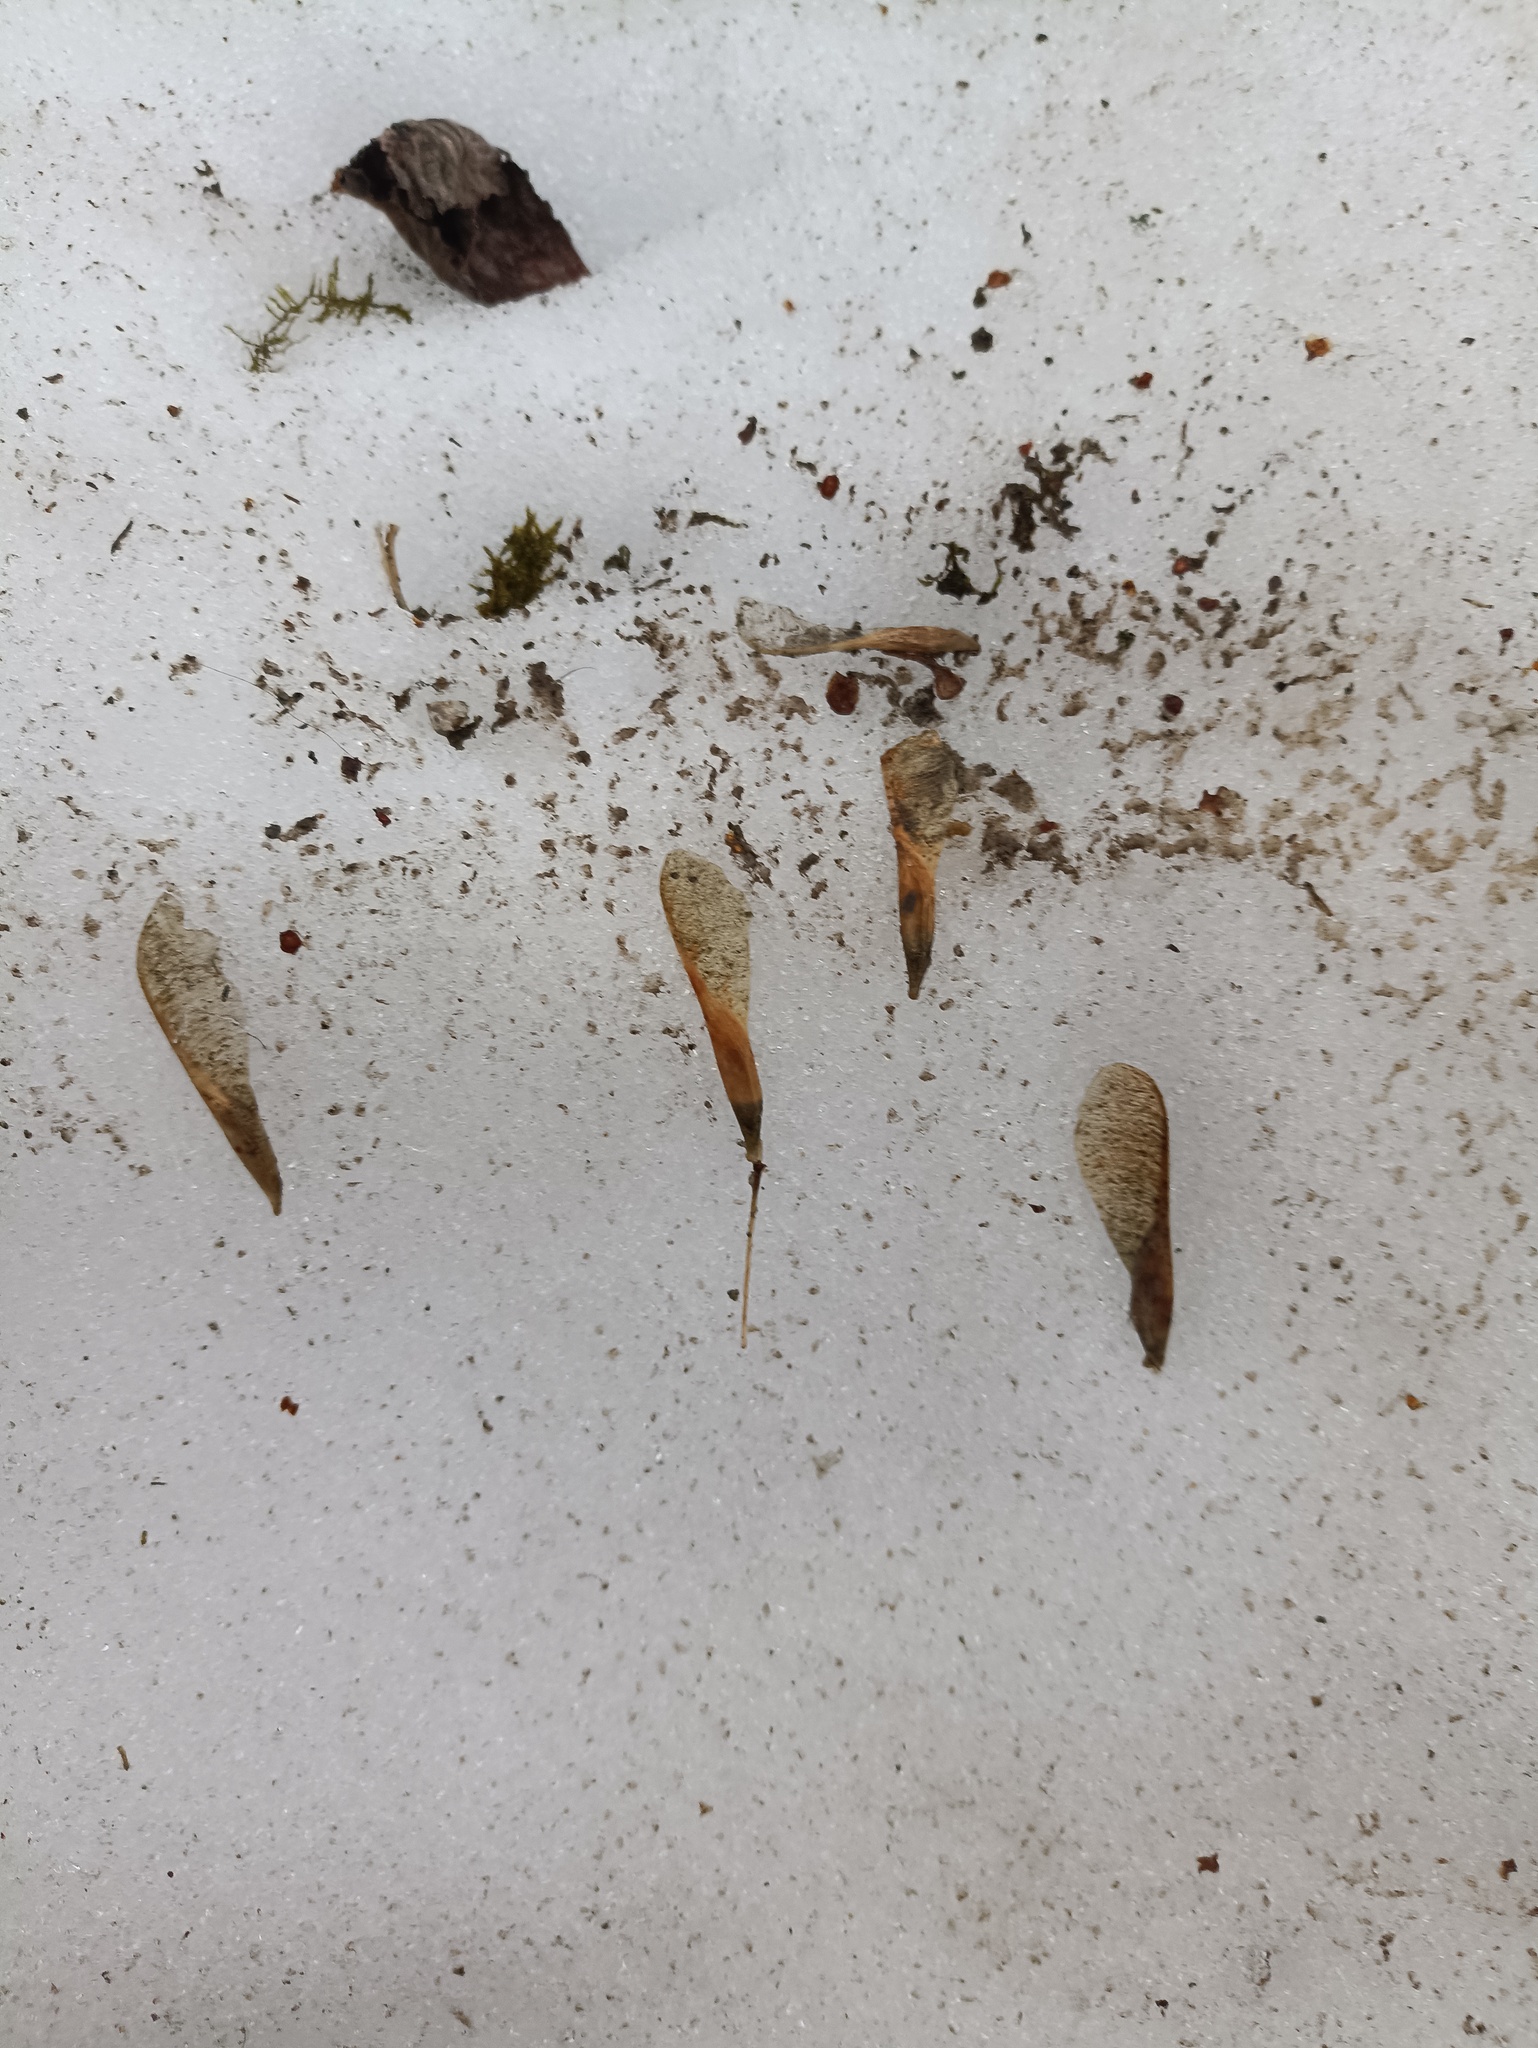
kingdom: Plantae
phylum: Tracheophyta
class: Magnoliopsida
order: Sapindales
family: Sapindaceae
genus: Acer
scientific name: Acer negundo
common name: Ashleaf maple
